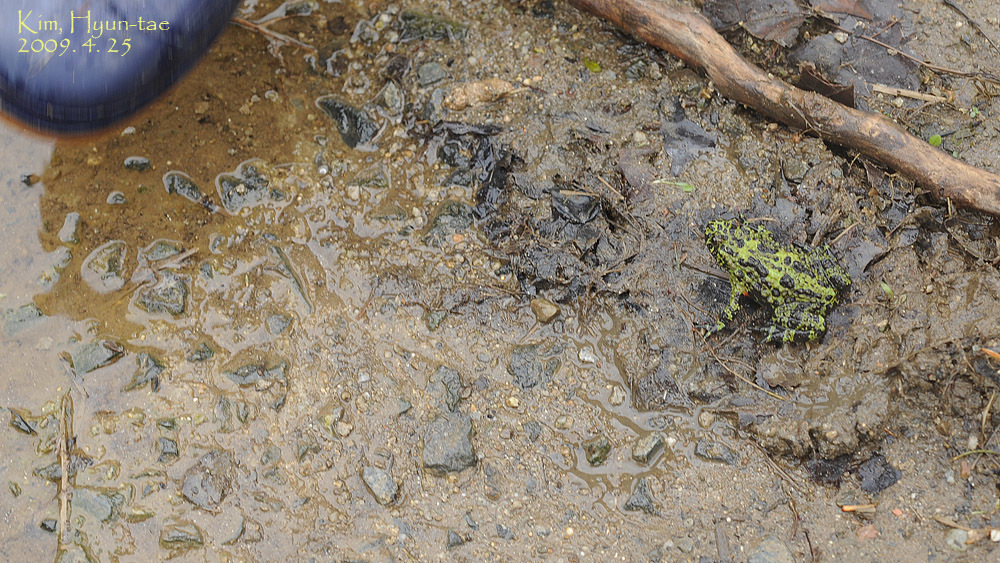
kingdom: Animalia
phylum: Chordata
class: Amphibia
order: Anura
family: Bombinatoridae
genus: Bombina
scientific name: Bombina orientalis
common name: Oriental firebelly toad
